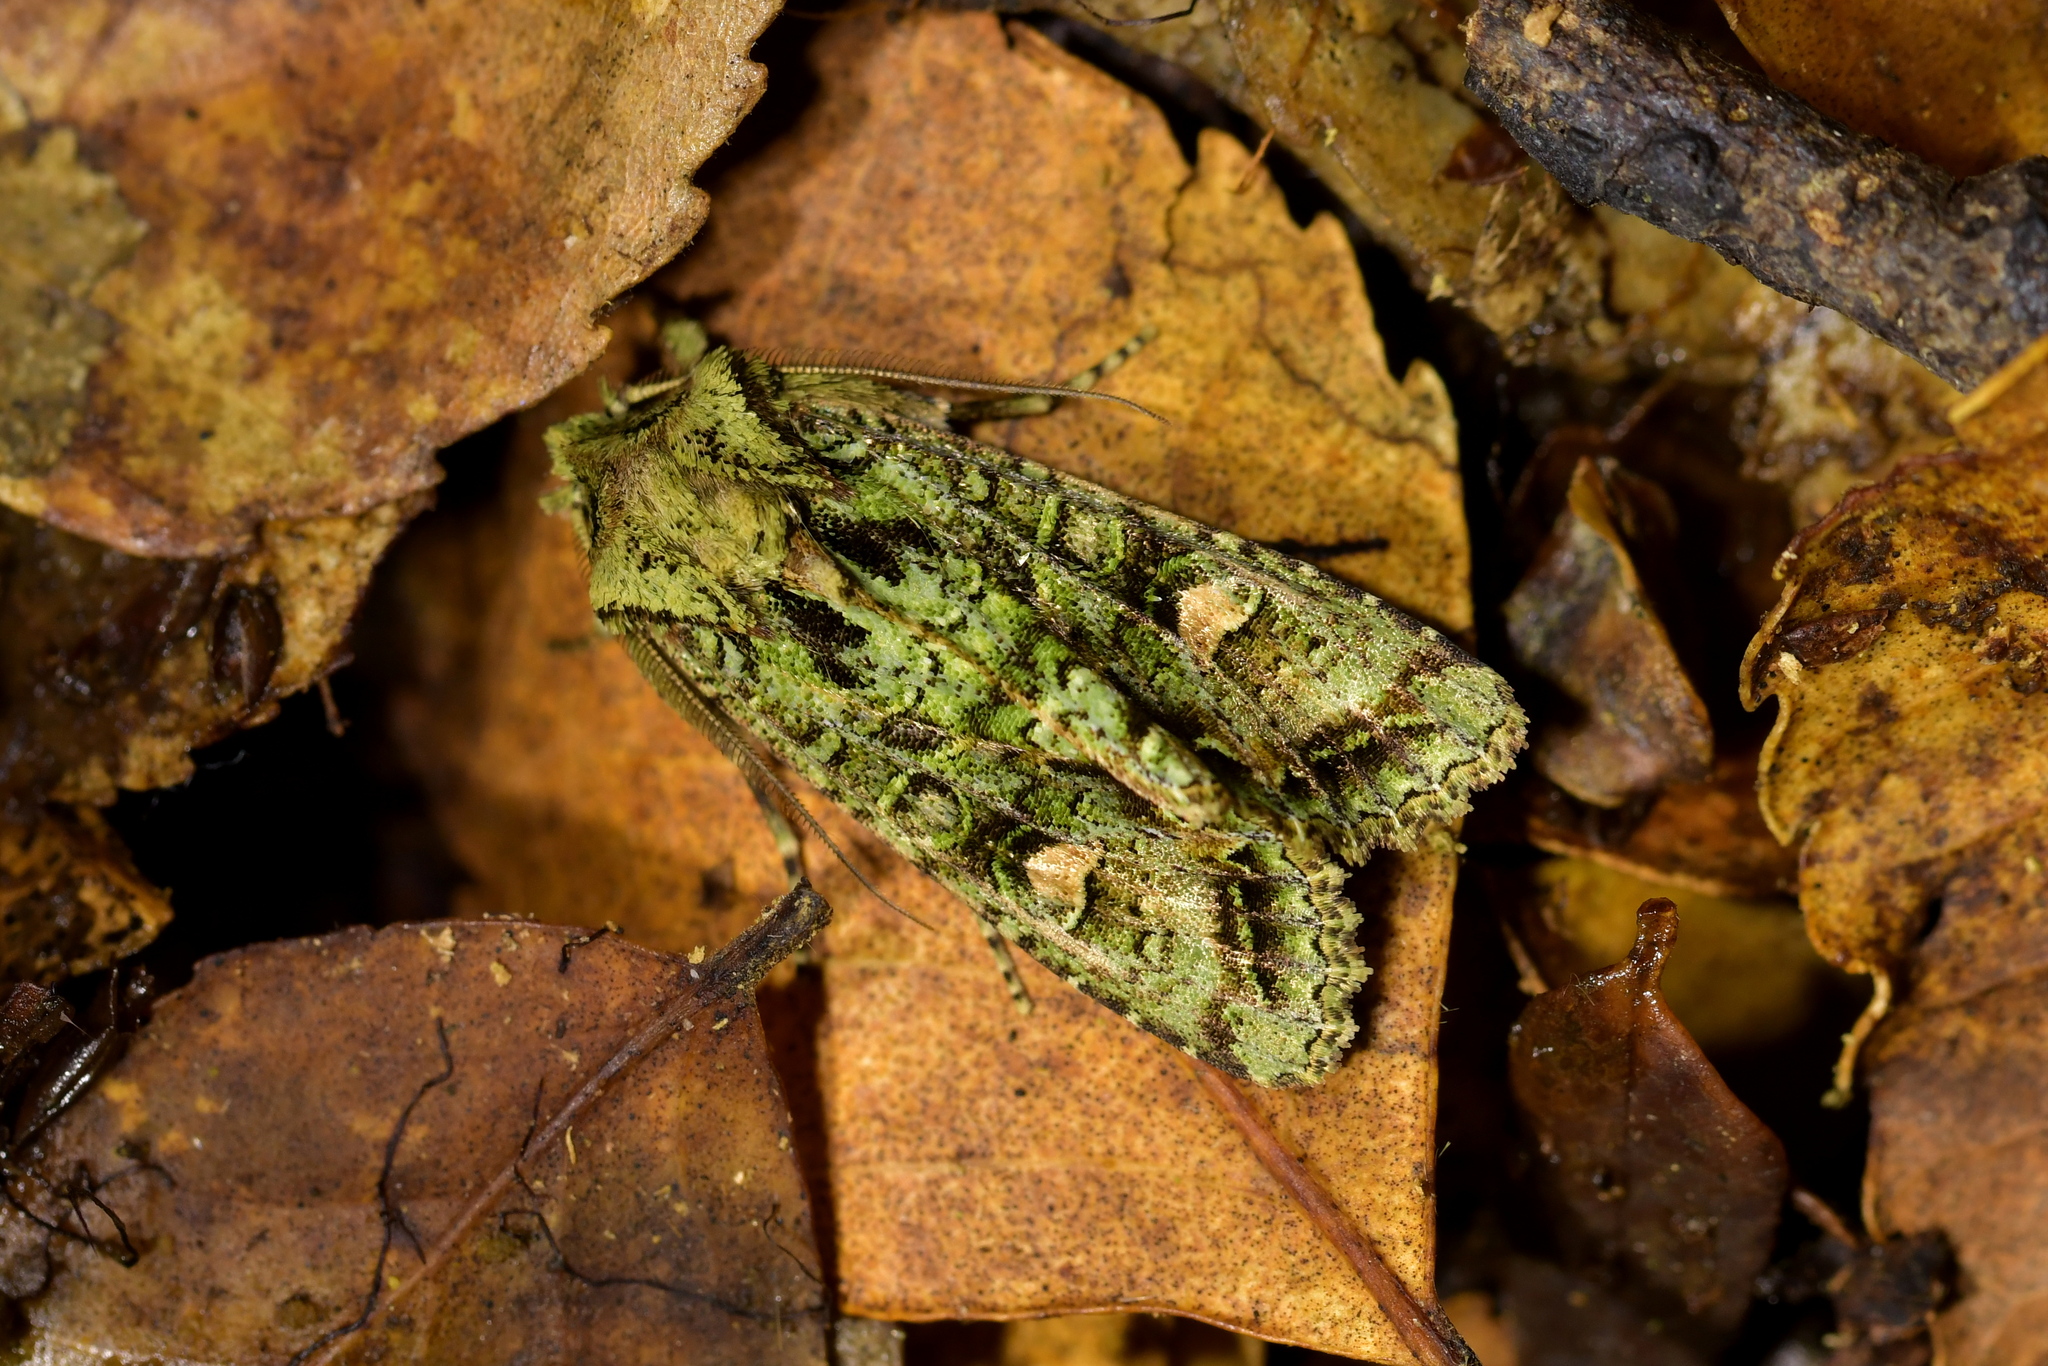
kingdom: Animalia
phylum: Arthropoda
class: Insecta
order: Lepidoptera
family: Noctuidae
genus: Ichneutica
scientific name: Ichneutica
